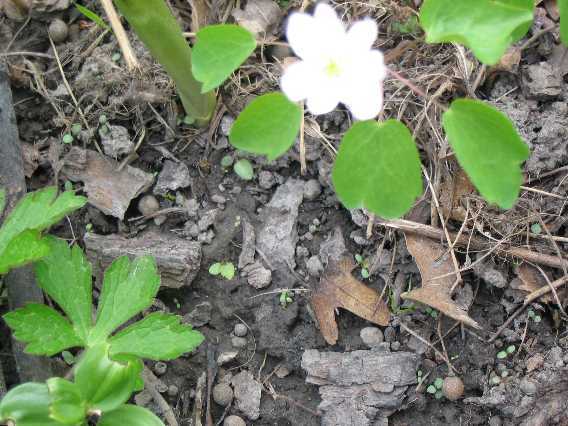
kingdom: Plantae
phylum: Tracheophyta
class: Magnoliopsida
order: Ranunculales
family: Ranunculaceae
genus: Thalictrum
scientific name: Thalictrum thalictroides
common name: Rue-anemone
